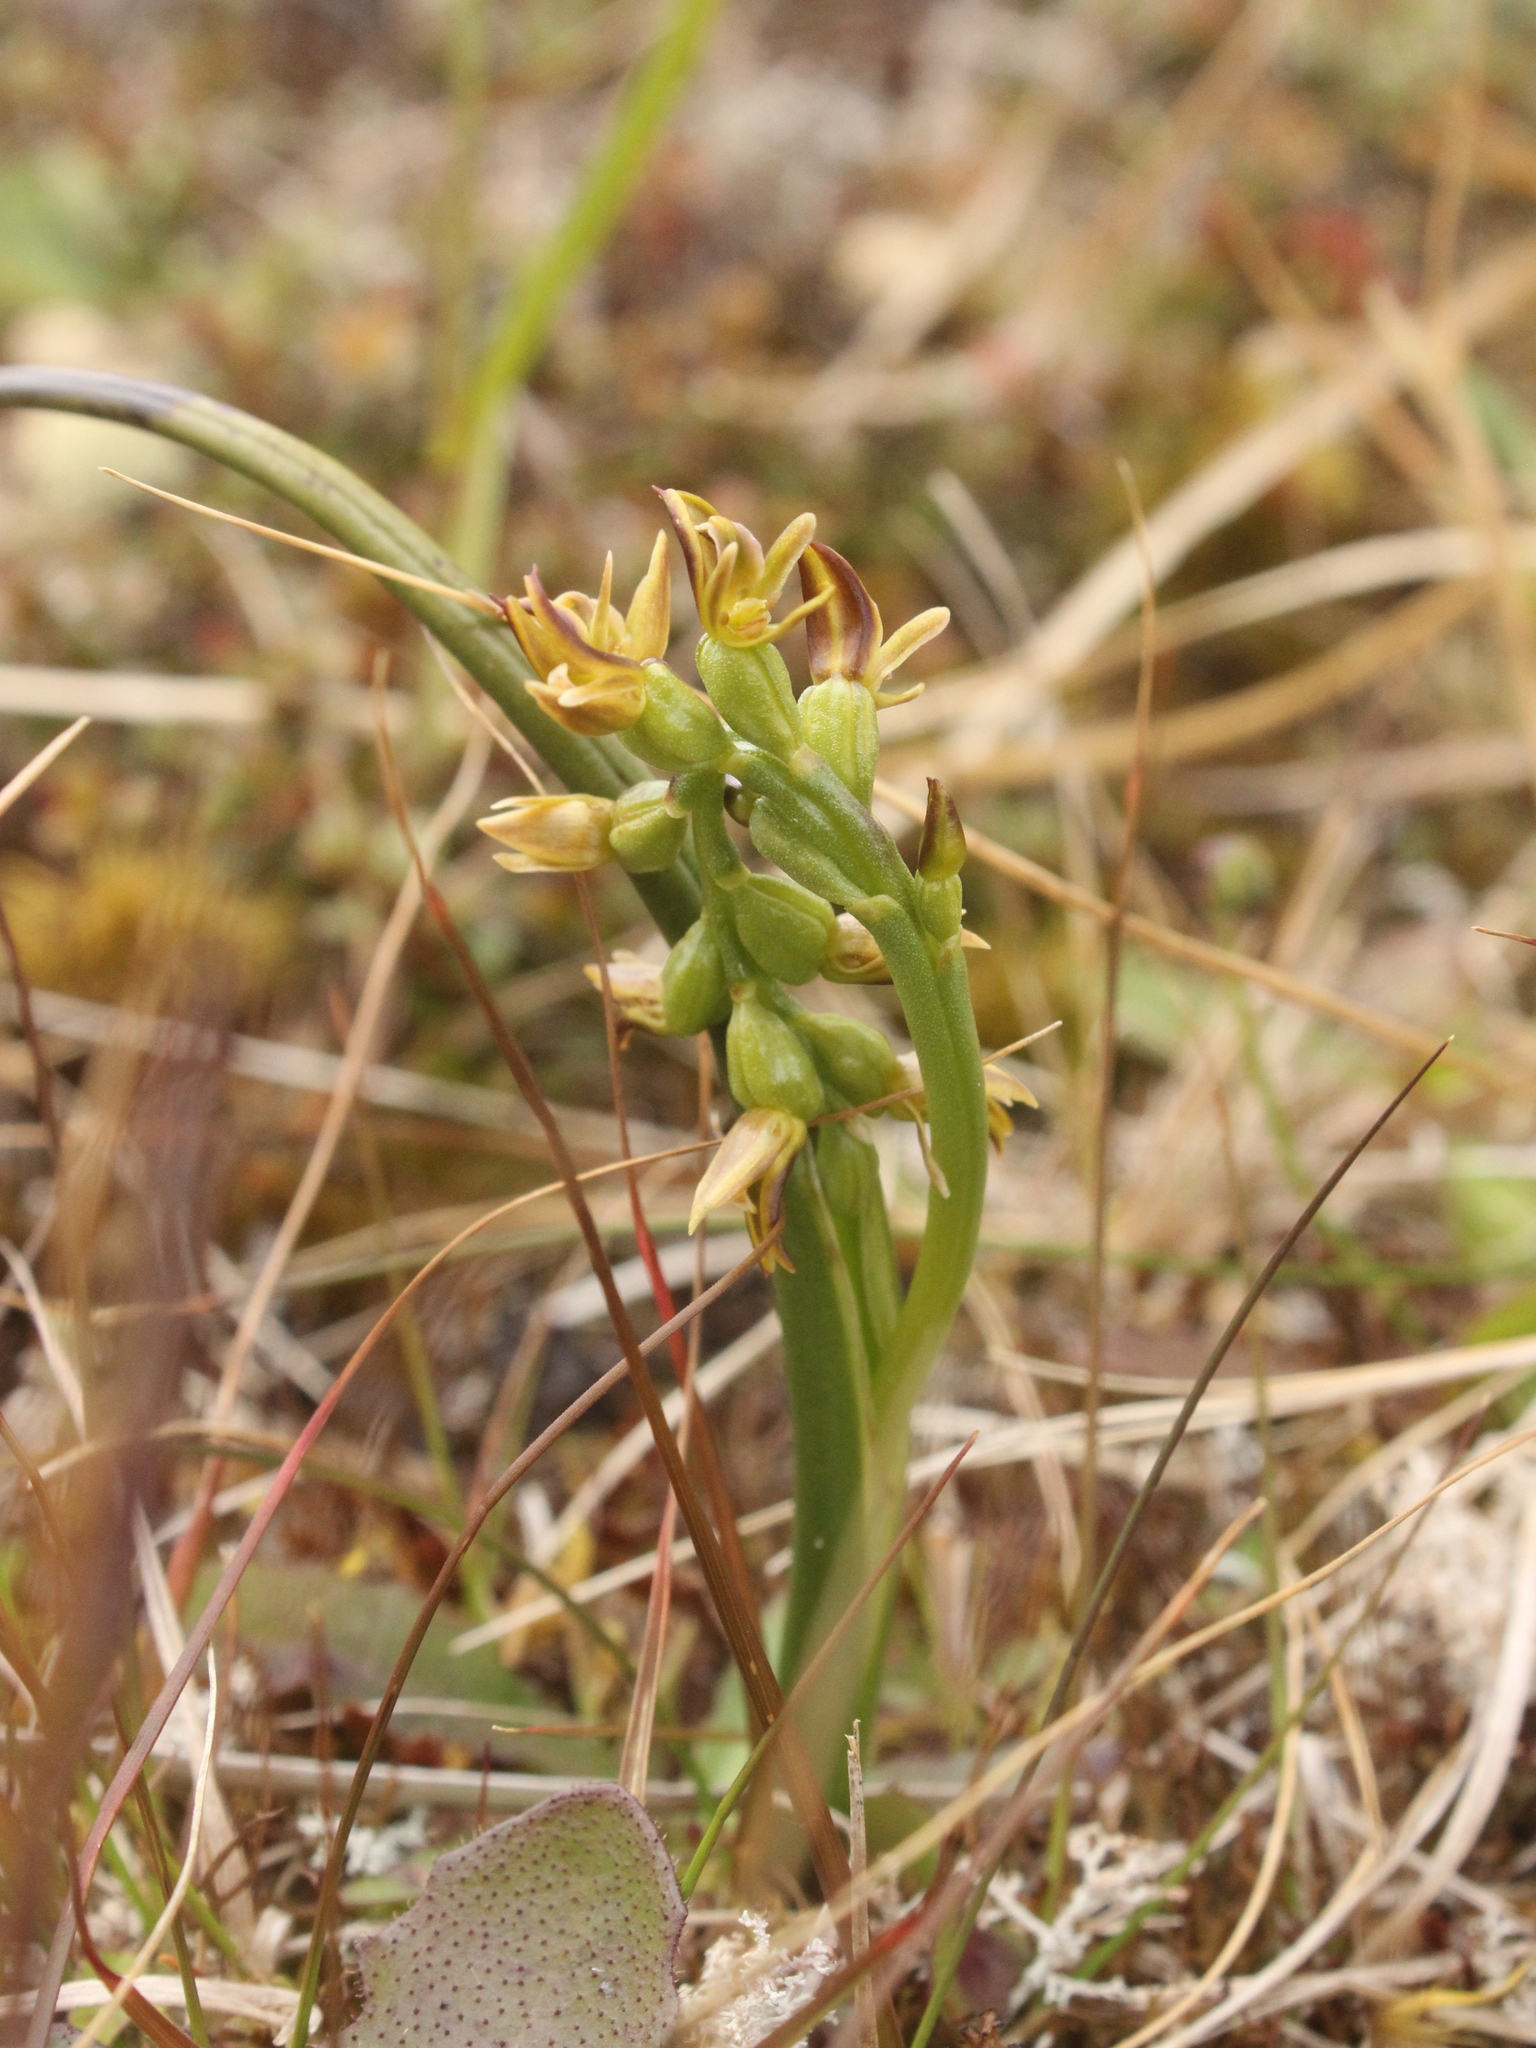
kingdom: Plantae
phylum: Tracheophyta
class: Liliopsida
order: Asparagales
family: Orchidaceae
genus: Prasophyllum
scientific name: Prasophyllum colensoi
